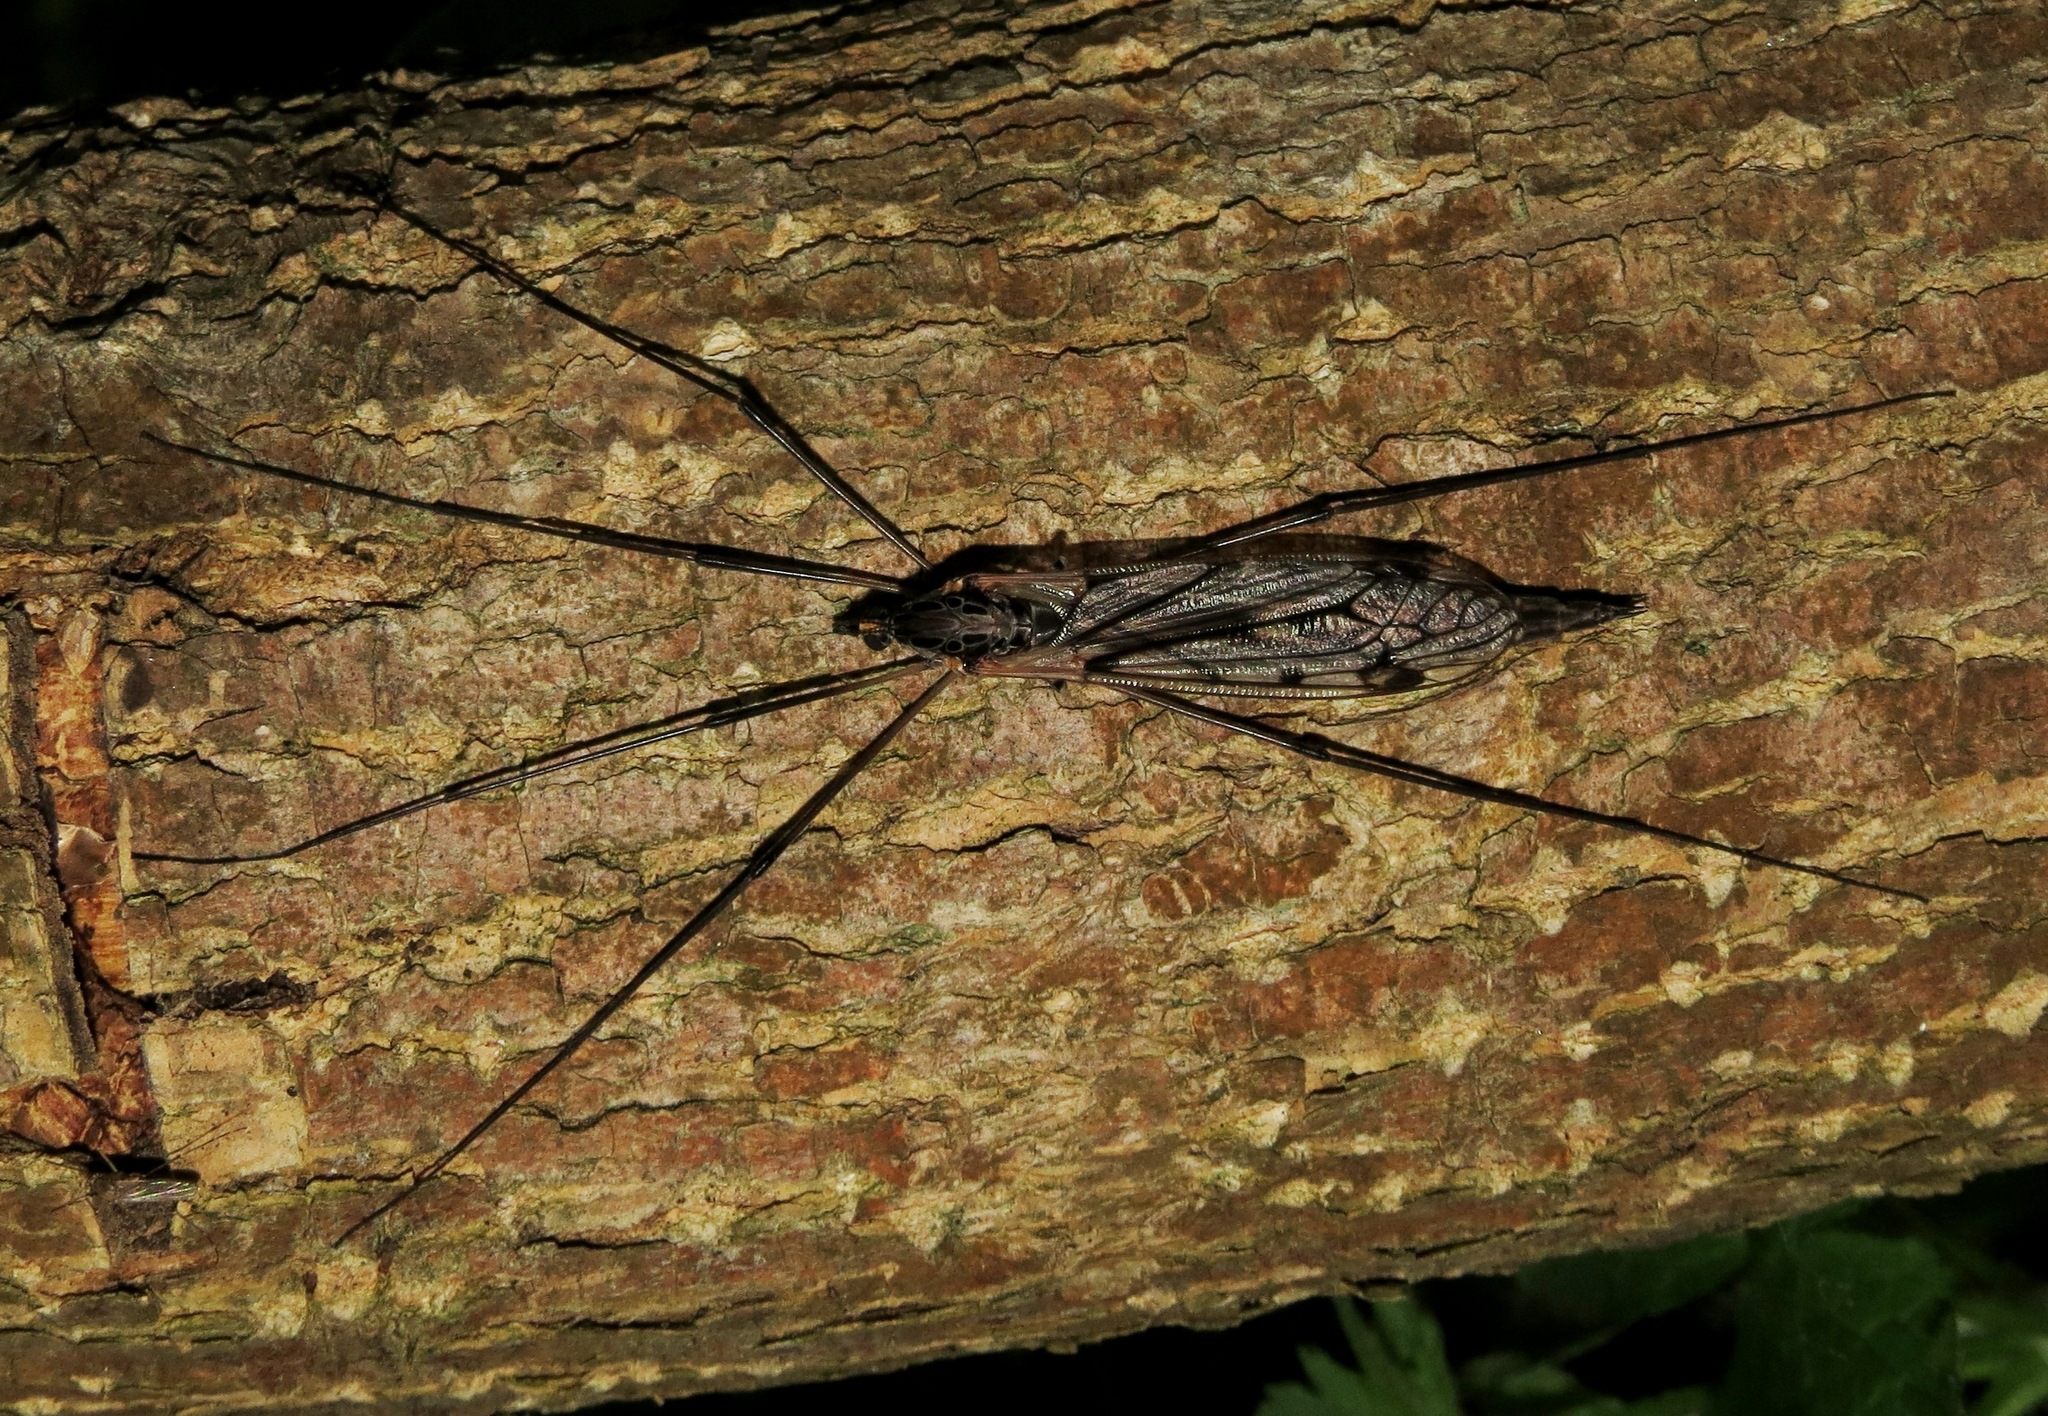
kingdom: Animalia
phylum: Arthropoda
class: Insecta
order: Diptera
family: Tipulidae
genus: Tipula
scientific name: Tipula metacomet
